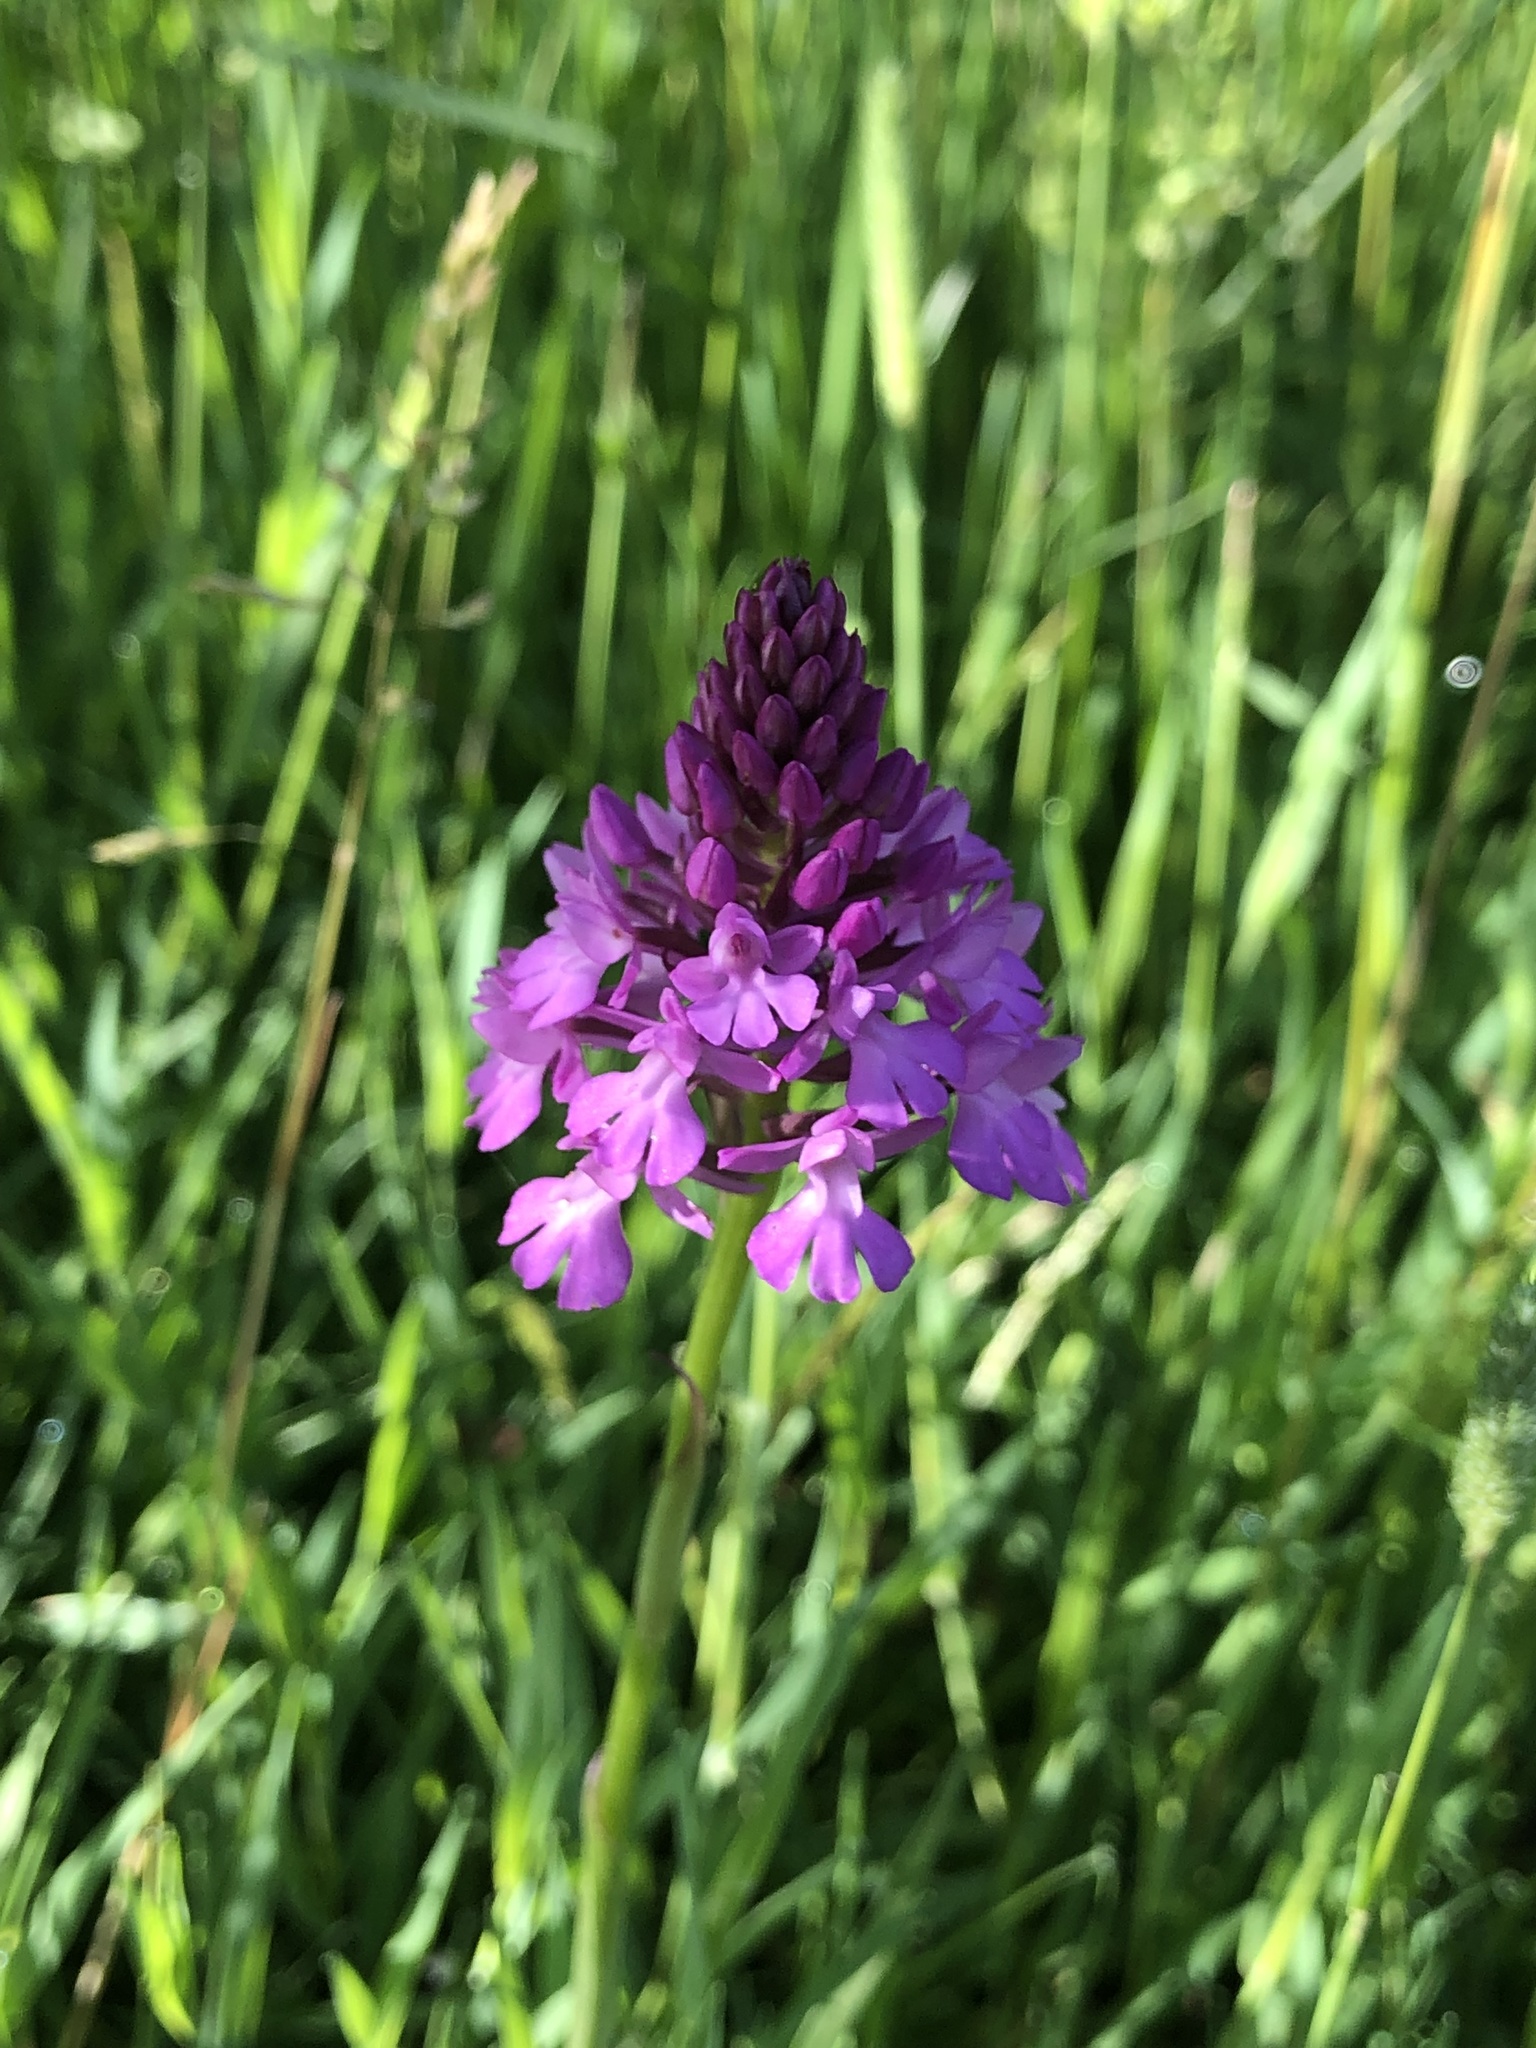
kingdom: Plantae
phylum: Tracheophyta
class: Liliopsida
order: Asparagales
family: Orchidaceae
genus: Anacamptis
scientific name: Anacamptis pyramidalis
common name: Pyramidal orchid
